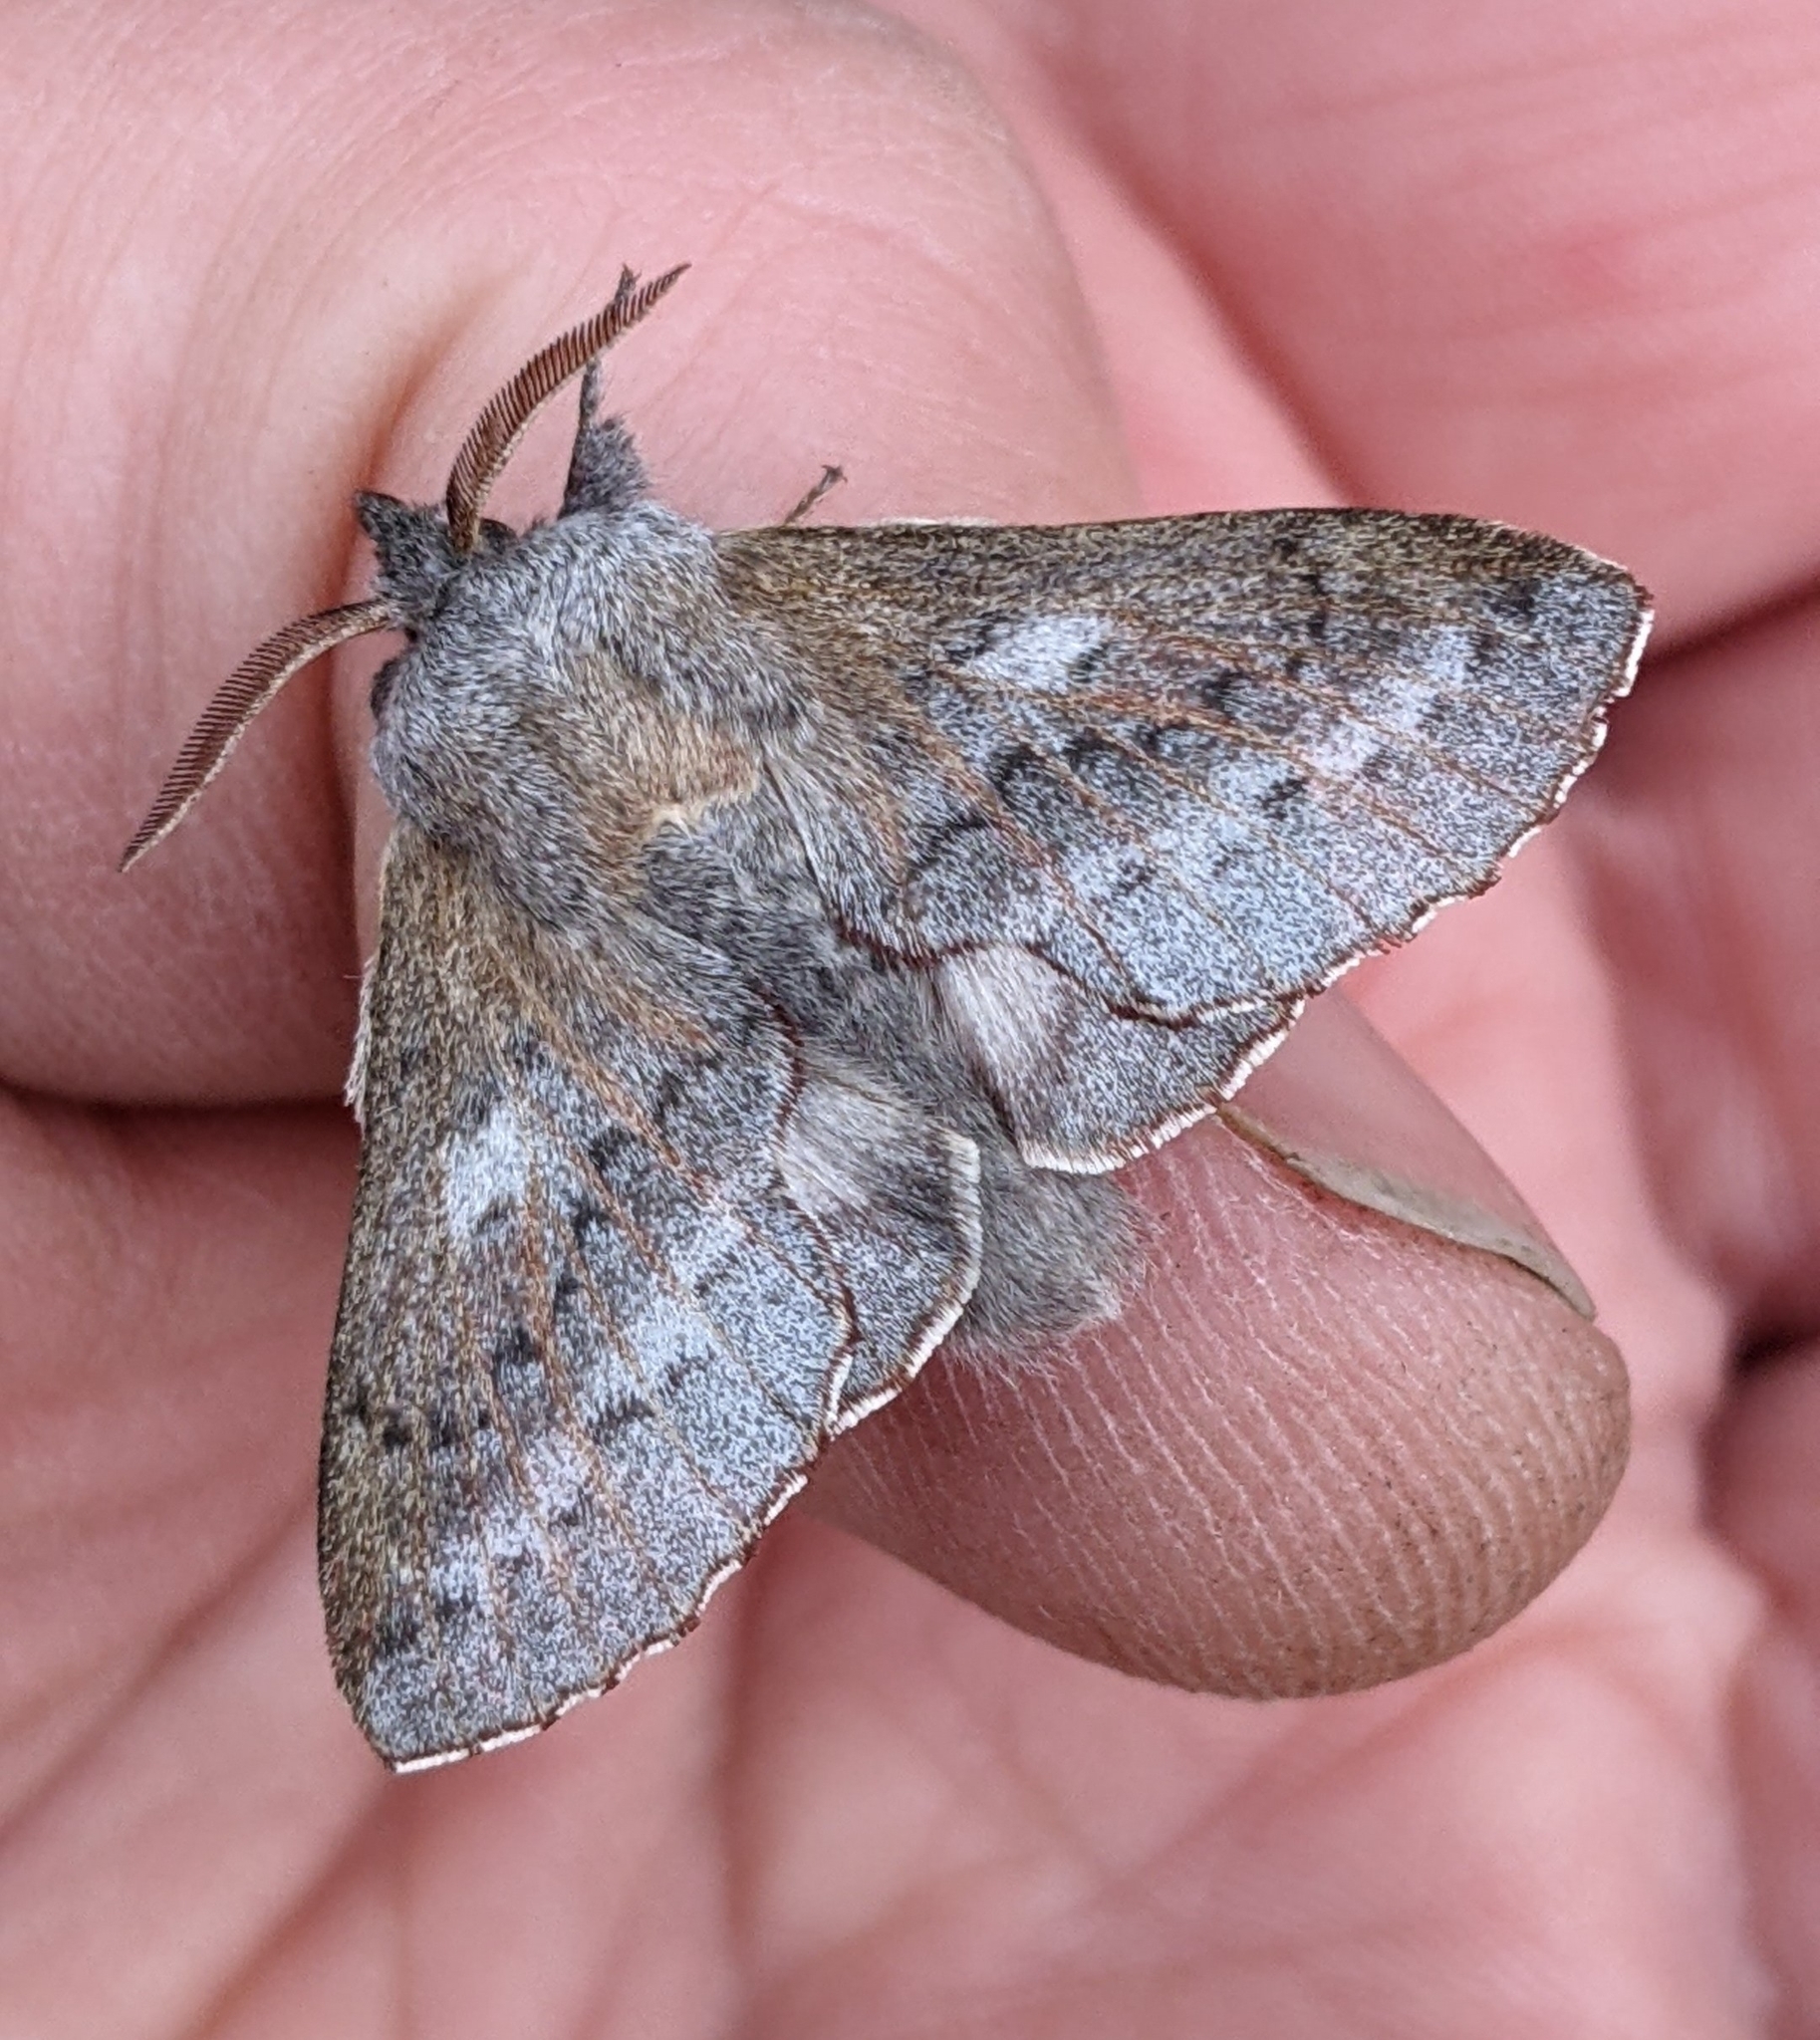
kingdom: Animalia
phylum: Arthropoda
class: Insecta
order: Lepidoptera
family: Lasiocampidae
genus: Phyllodesma
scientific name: Phyllodesma americana
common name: American lappet moth
